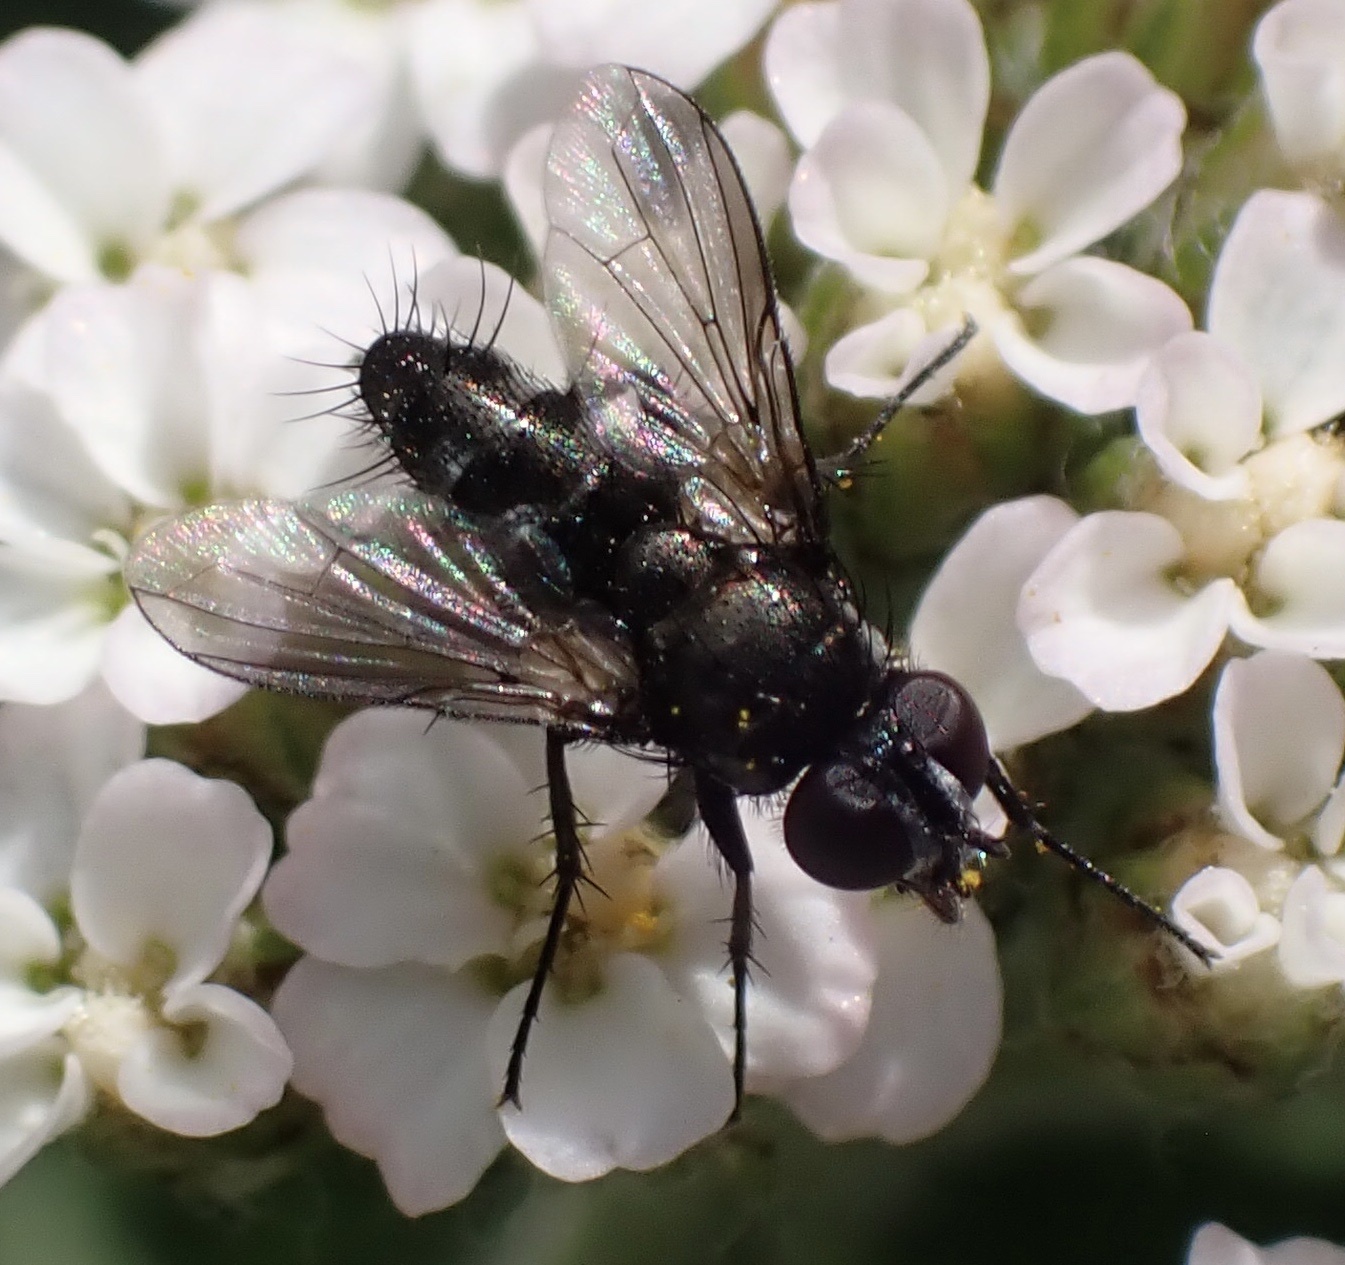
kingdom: Animalia
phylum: Arthropoda
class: Insecta
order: Diptera
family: Calliphoridae
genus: Rhinophora
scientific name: Rhinophora lepida
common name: Pouting woodlouse-fly
